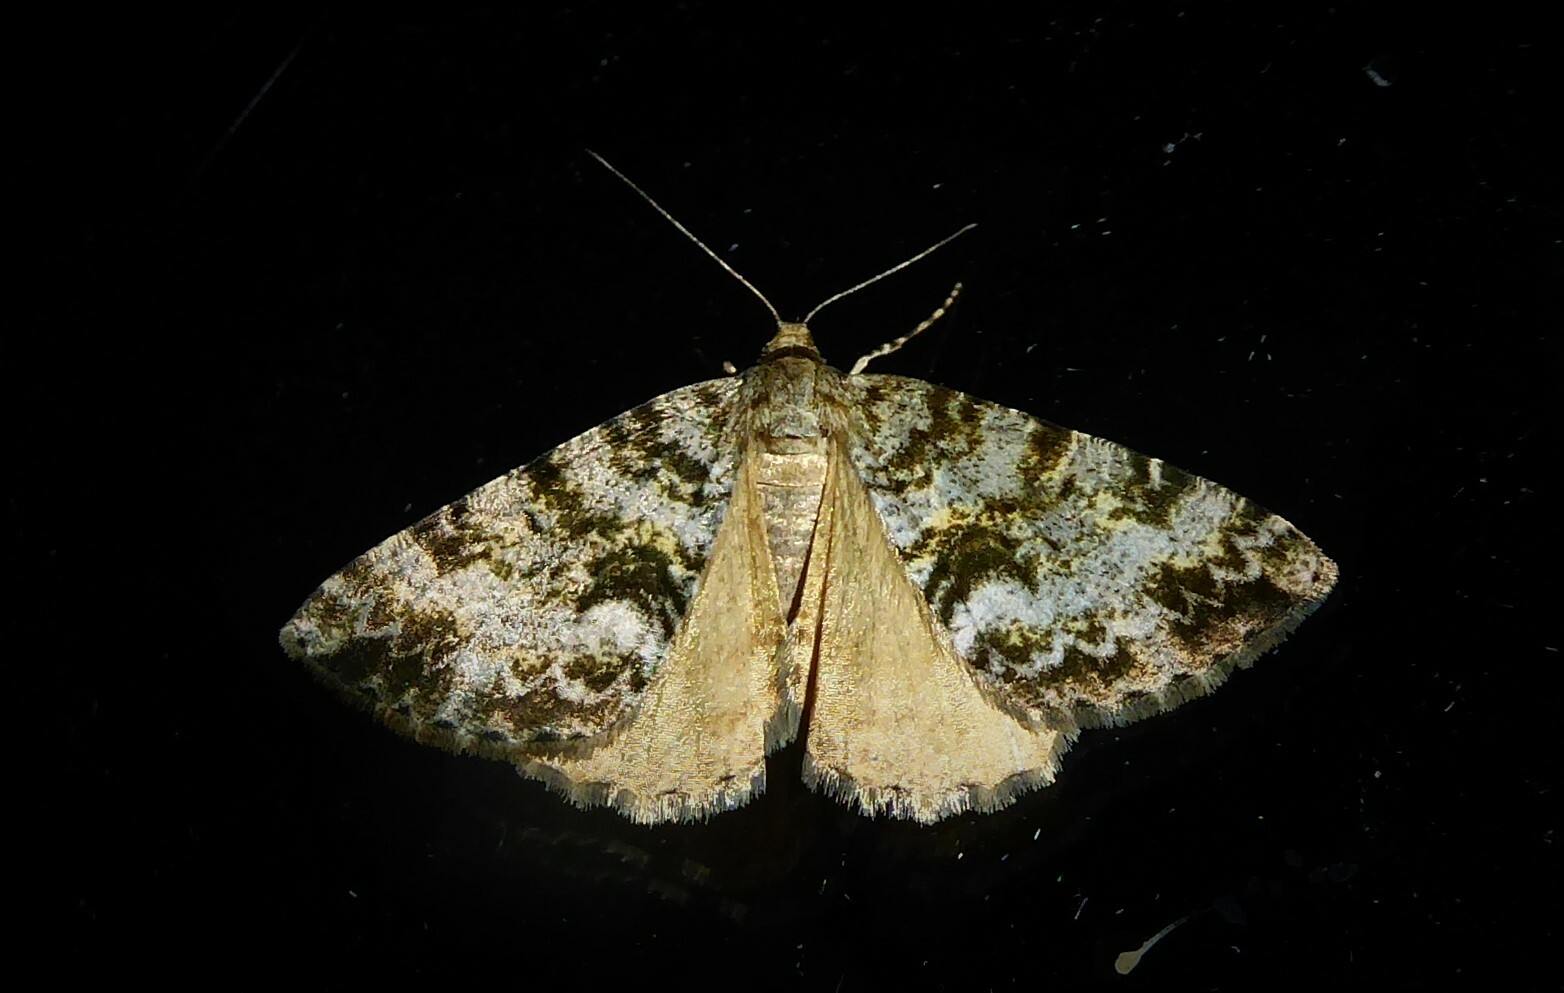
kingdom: Animalia
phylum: Arthropoda
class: Insecta
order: Lepidoptera
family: Geometridae
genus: Pseudocoremia
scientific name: Pseudocoremia lactiflua
